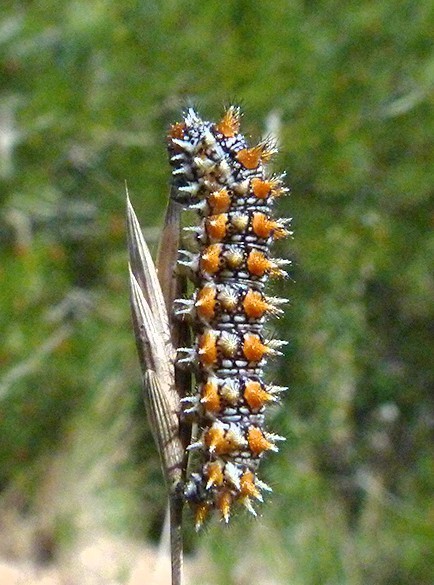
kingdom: Animalia
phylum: Arthropoda
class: Insecta
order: Lepidoptera
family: Nymphalidae
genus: Melitaea
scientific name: Melitaea didyma
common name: Spotted fritillary
